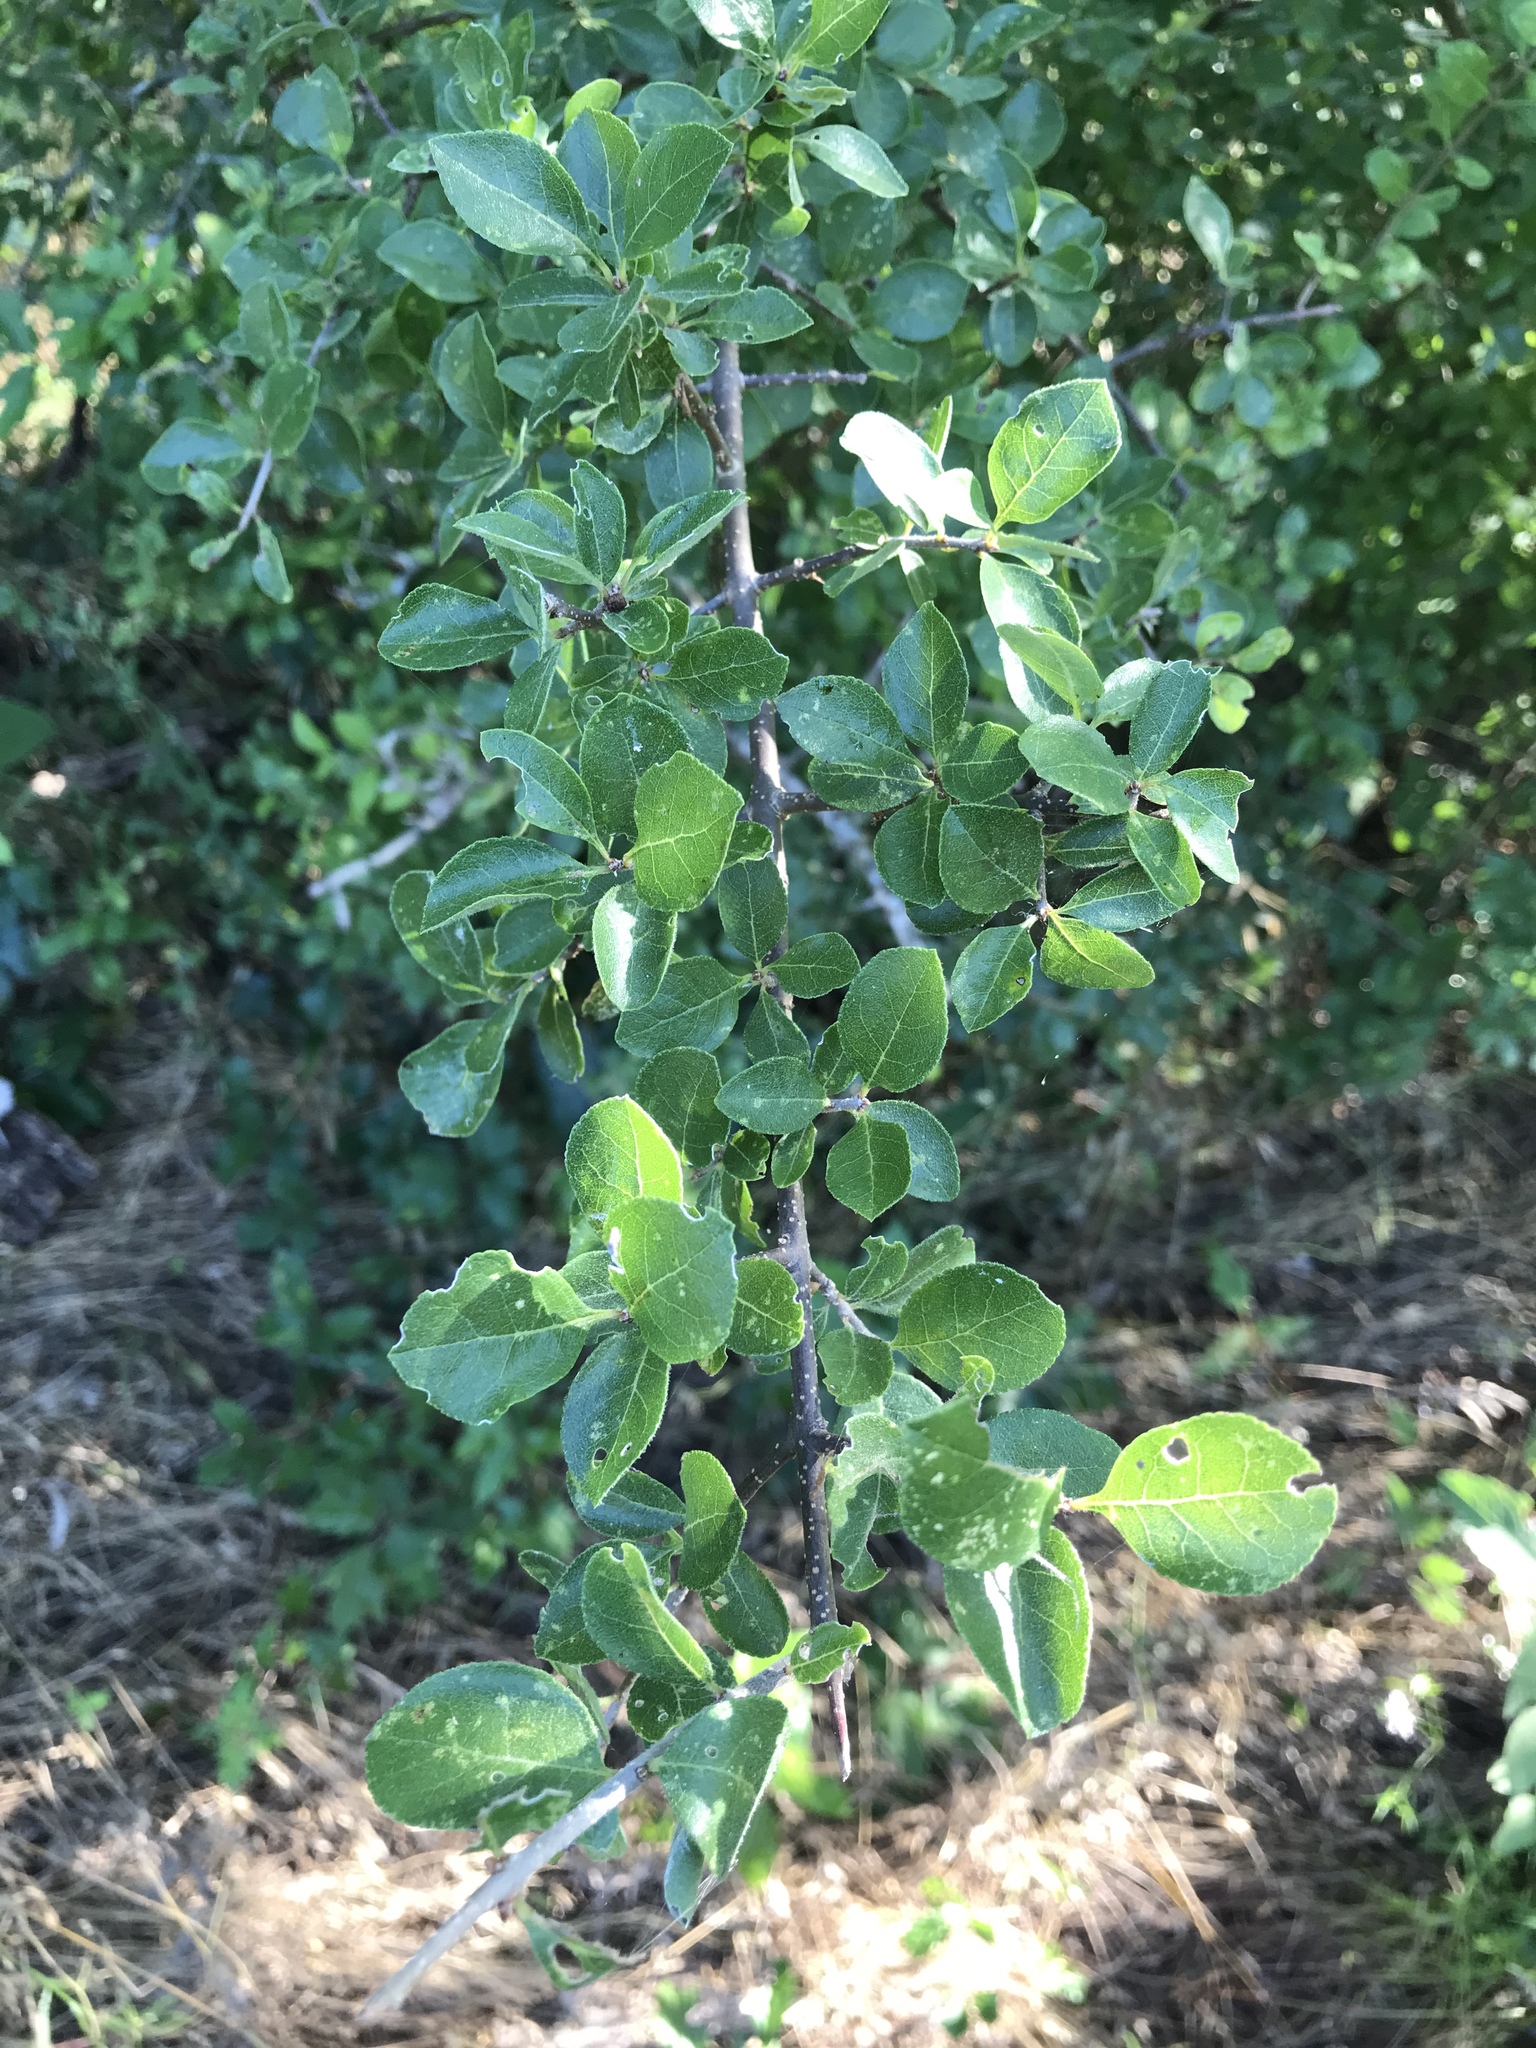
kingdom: Plantae
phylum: Tracheophyta
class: Magnoliopsida
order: Lamiales
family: Oleaceae
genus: Forestiera
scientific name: Forestiera pubescens
